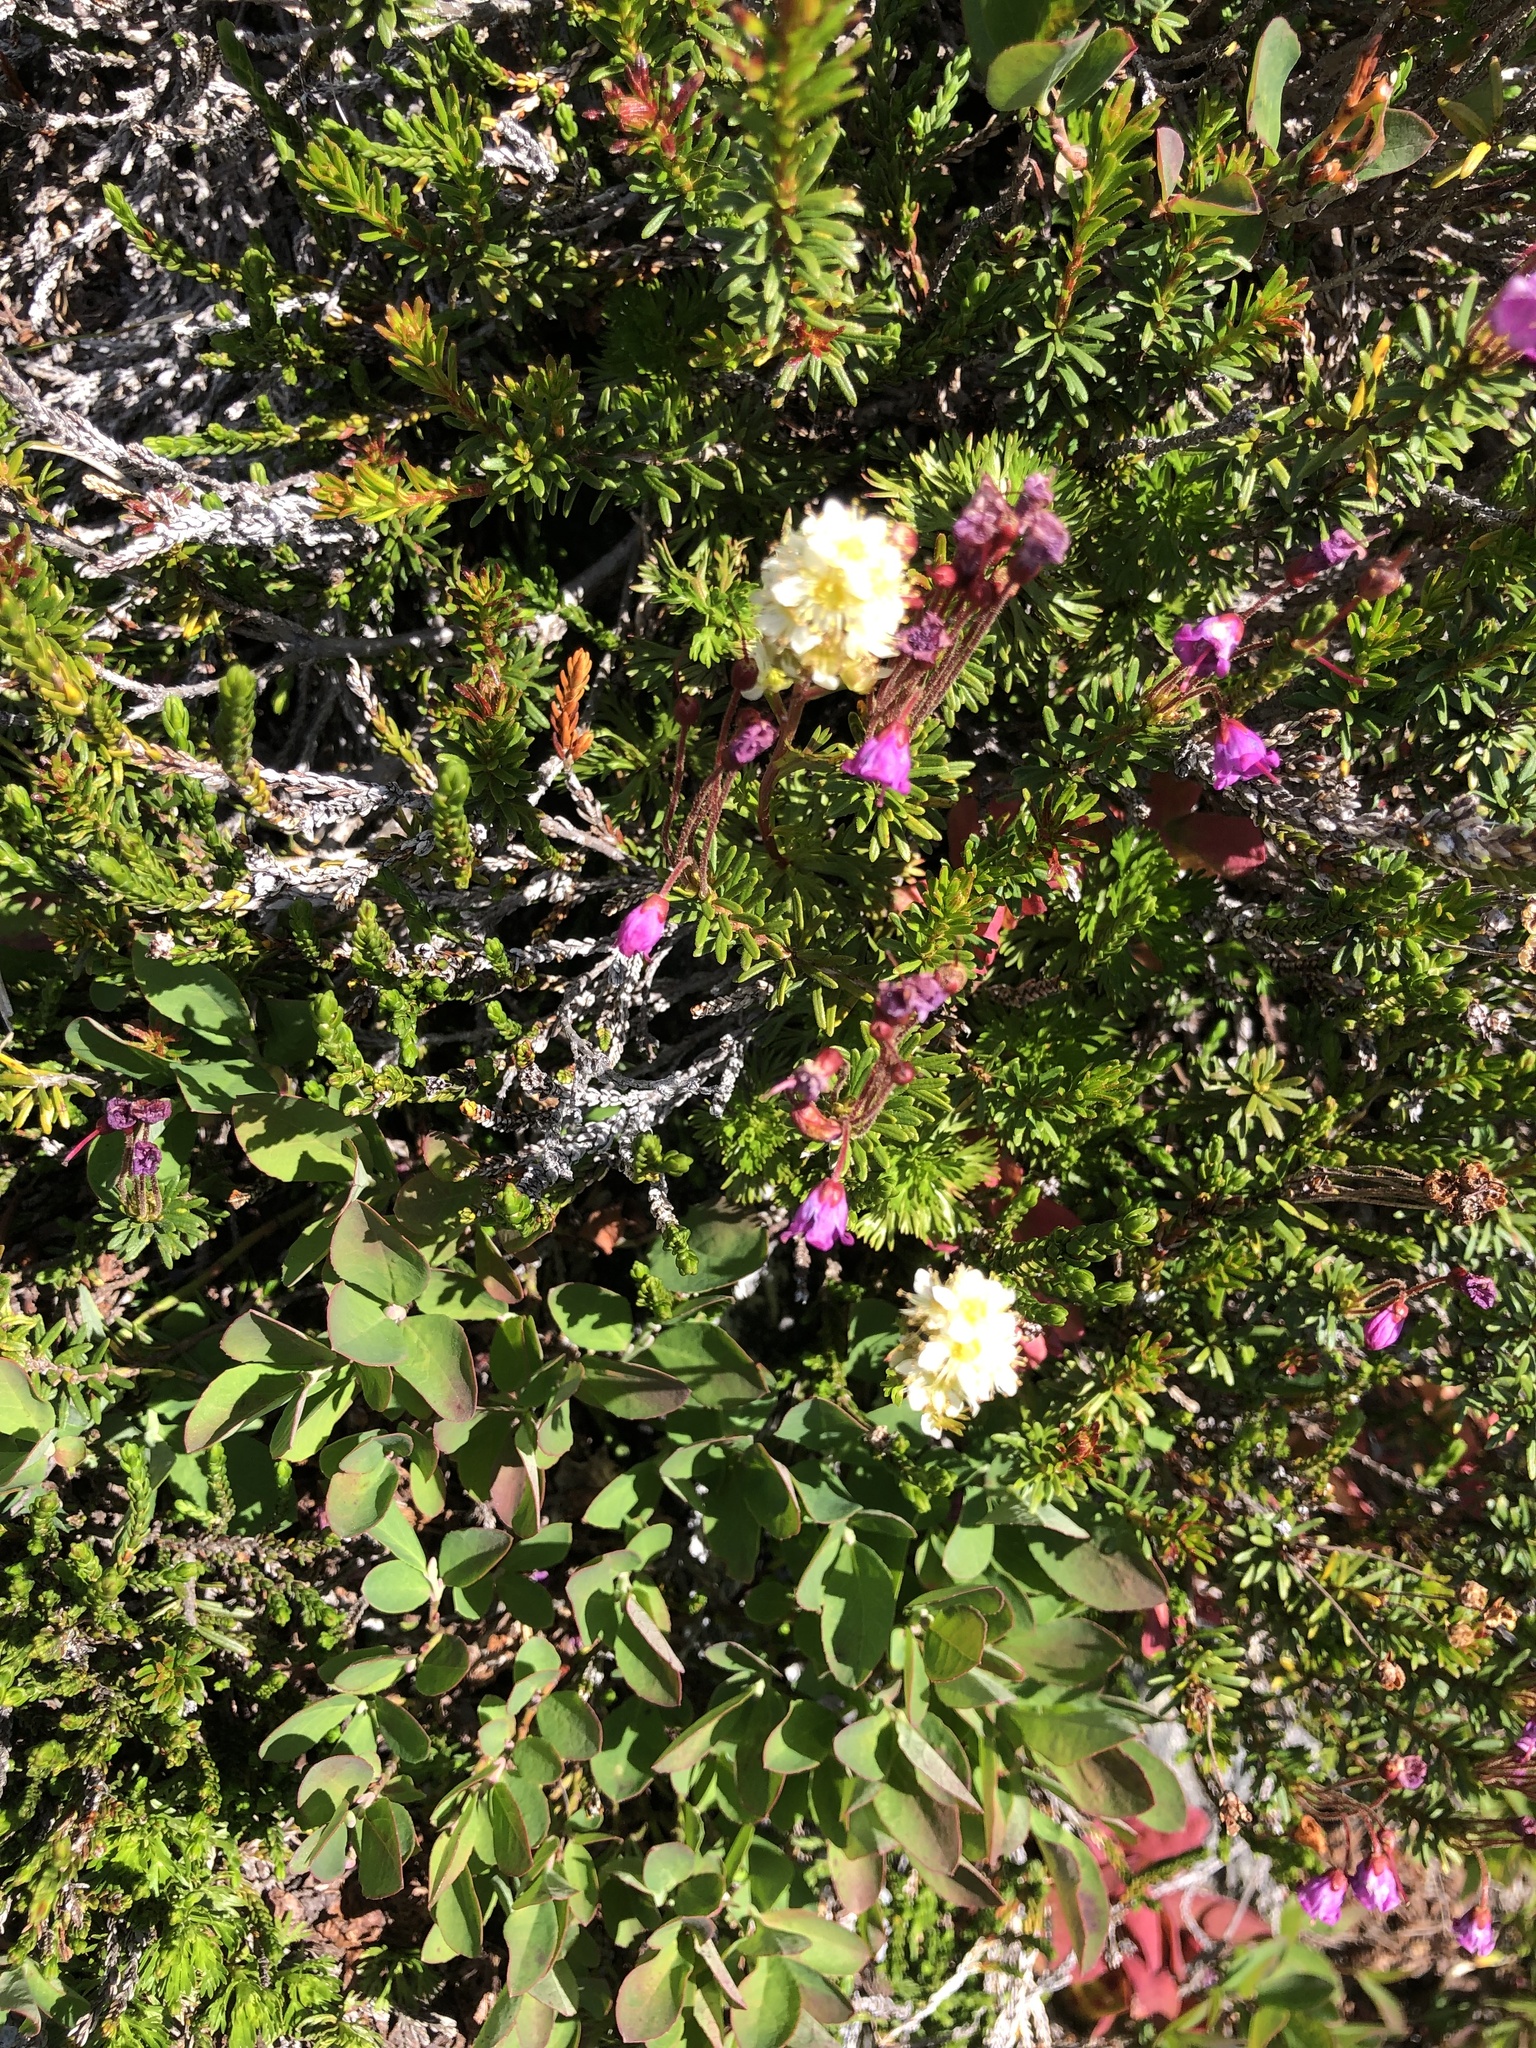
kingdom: Plantae
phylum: Tracheophyta
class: Magnoliopsida
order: Rosales
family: Rosaceae
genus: Luetkea
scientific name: Luetkea pectinata
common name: Partridgefoot
